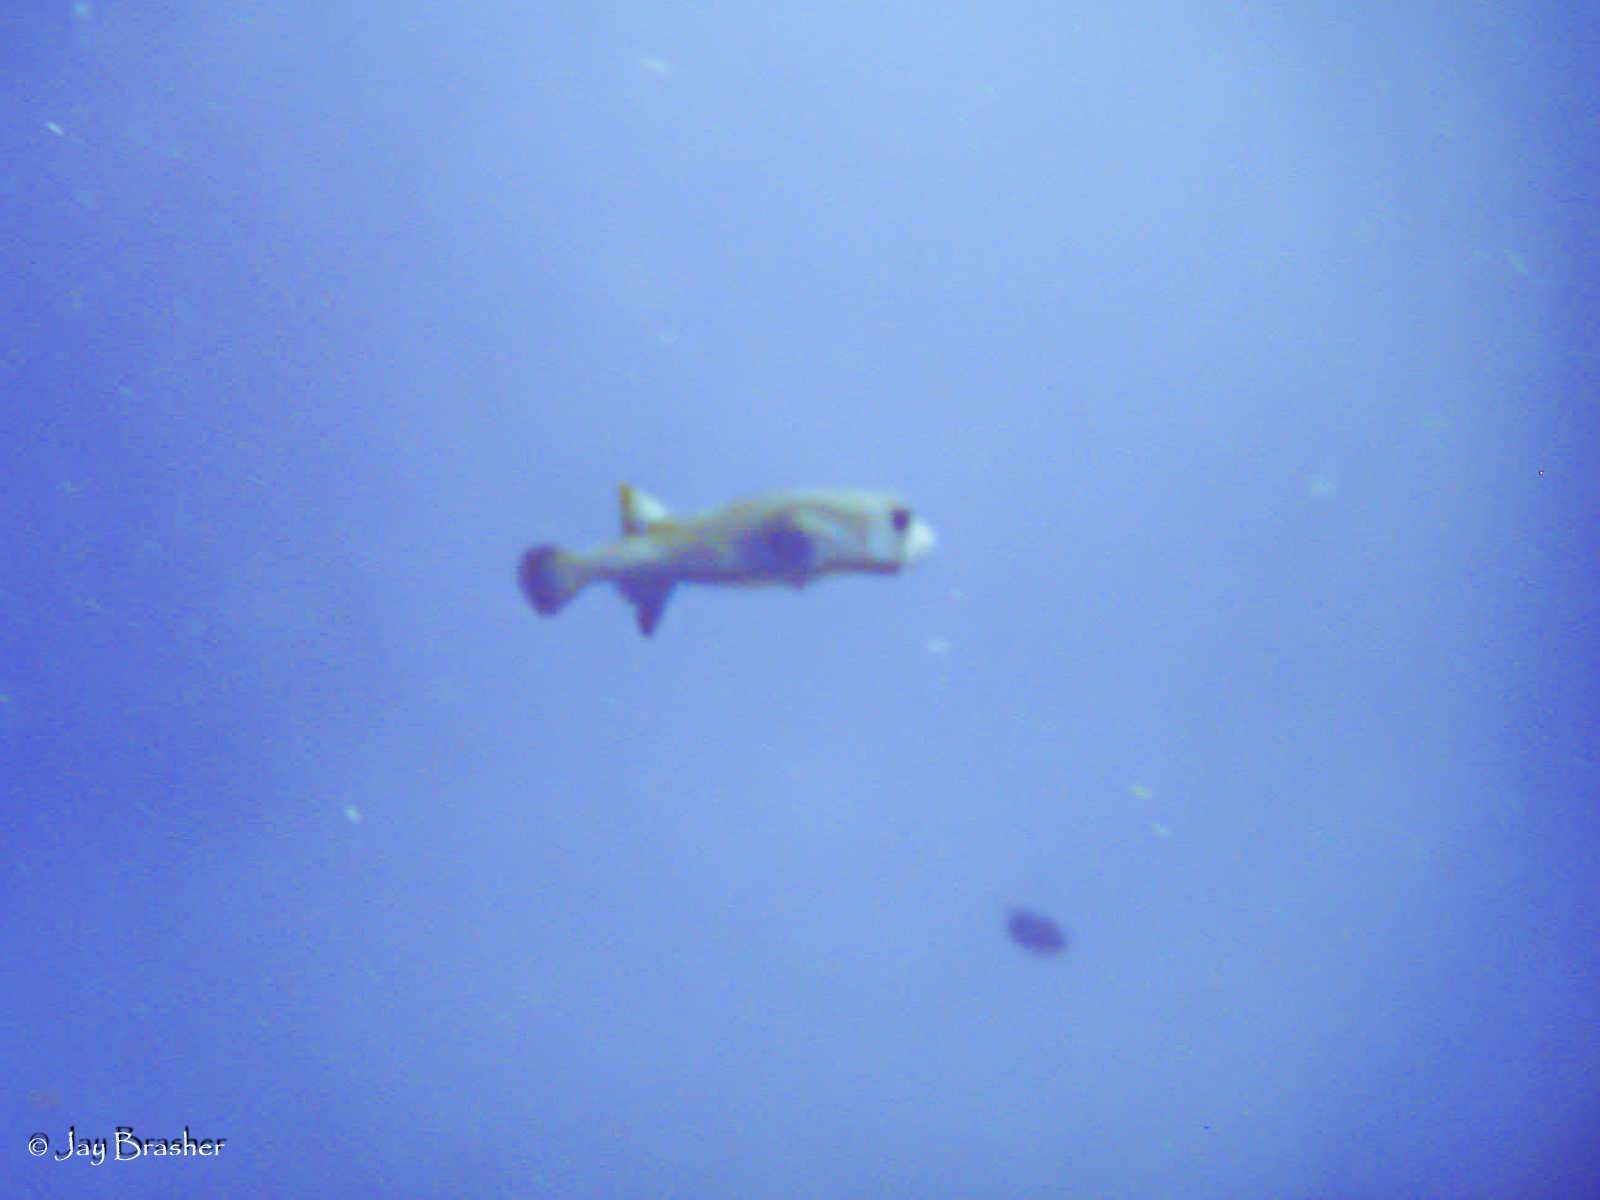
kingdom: Animalia
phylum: Chordata
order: Tetraodontiformes
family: Diodontidae
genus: Diodon
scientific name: Diodon hystrix
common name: Giant porcupinefish
